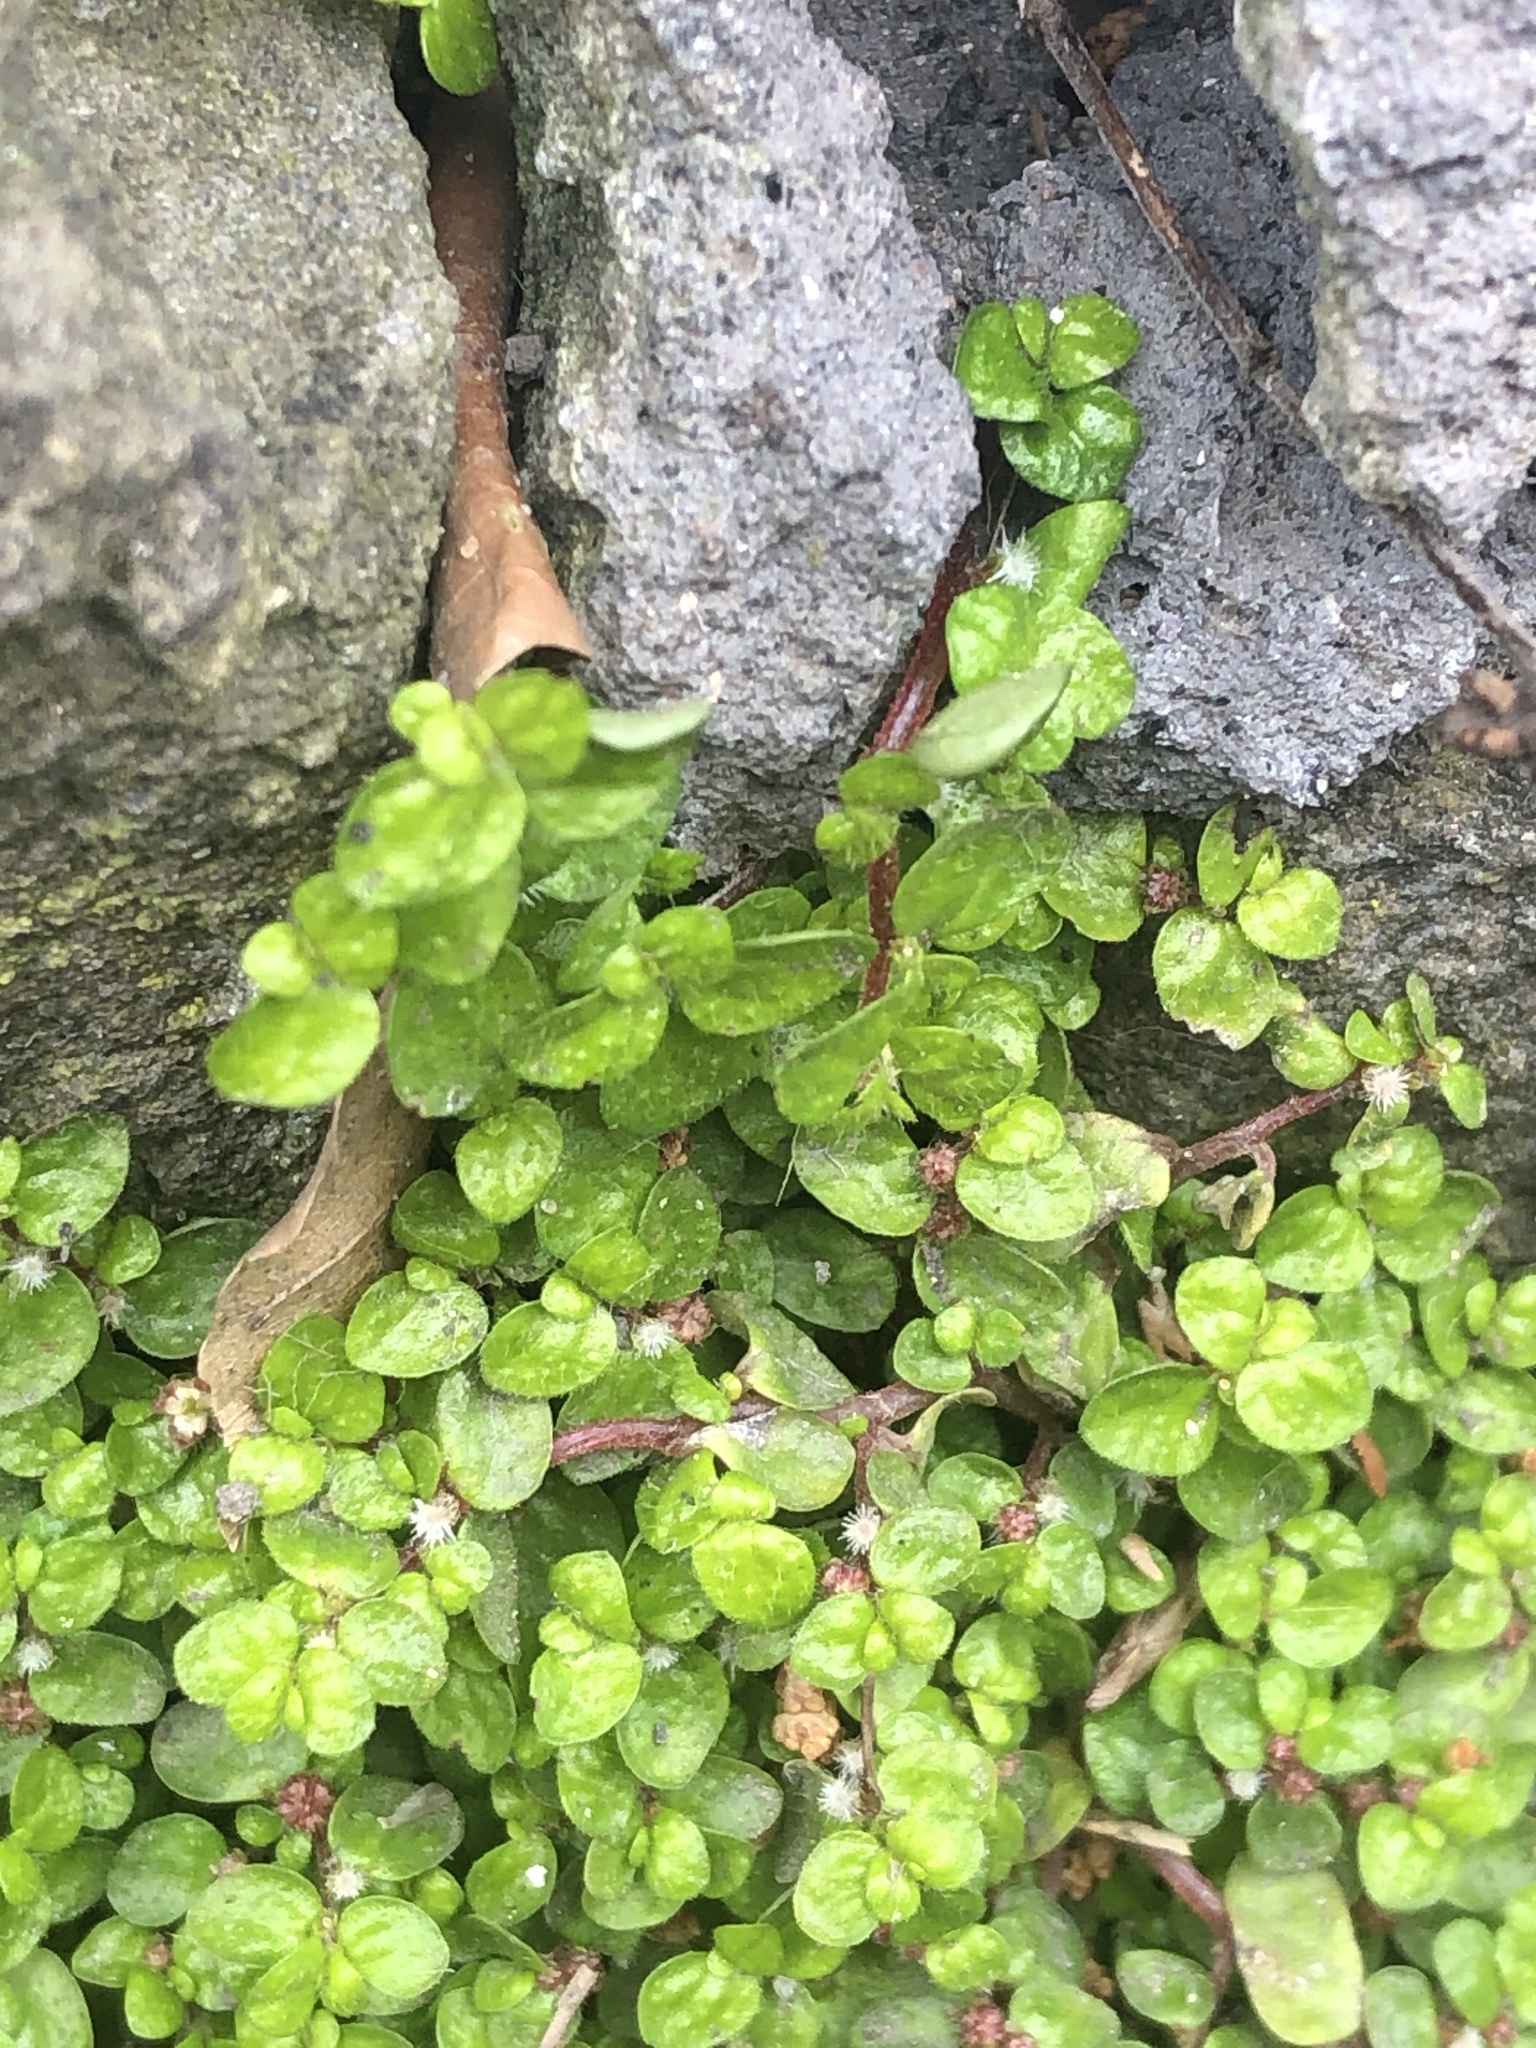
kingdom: Plantae
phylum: Tracheophyta
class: Magnoliopsida
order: Rosales
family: Urticaceae
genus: Soleirolia
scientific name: Soleirolia soleirolii
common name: Mind-your-own-business
